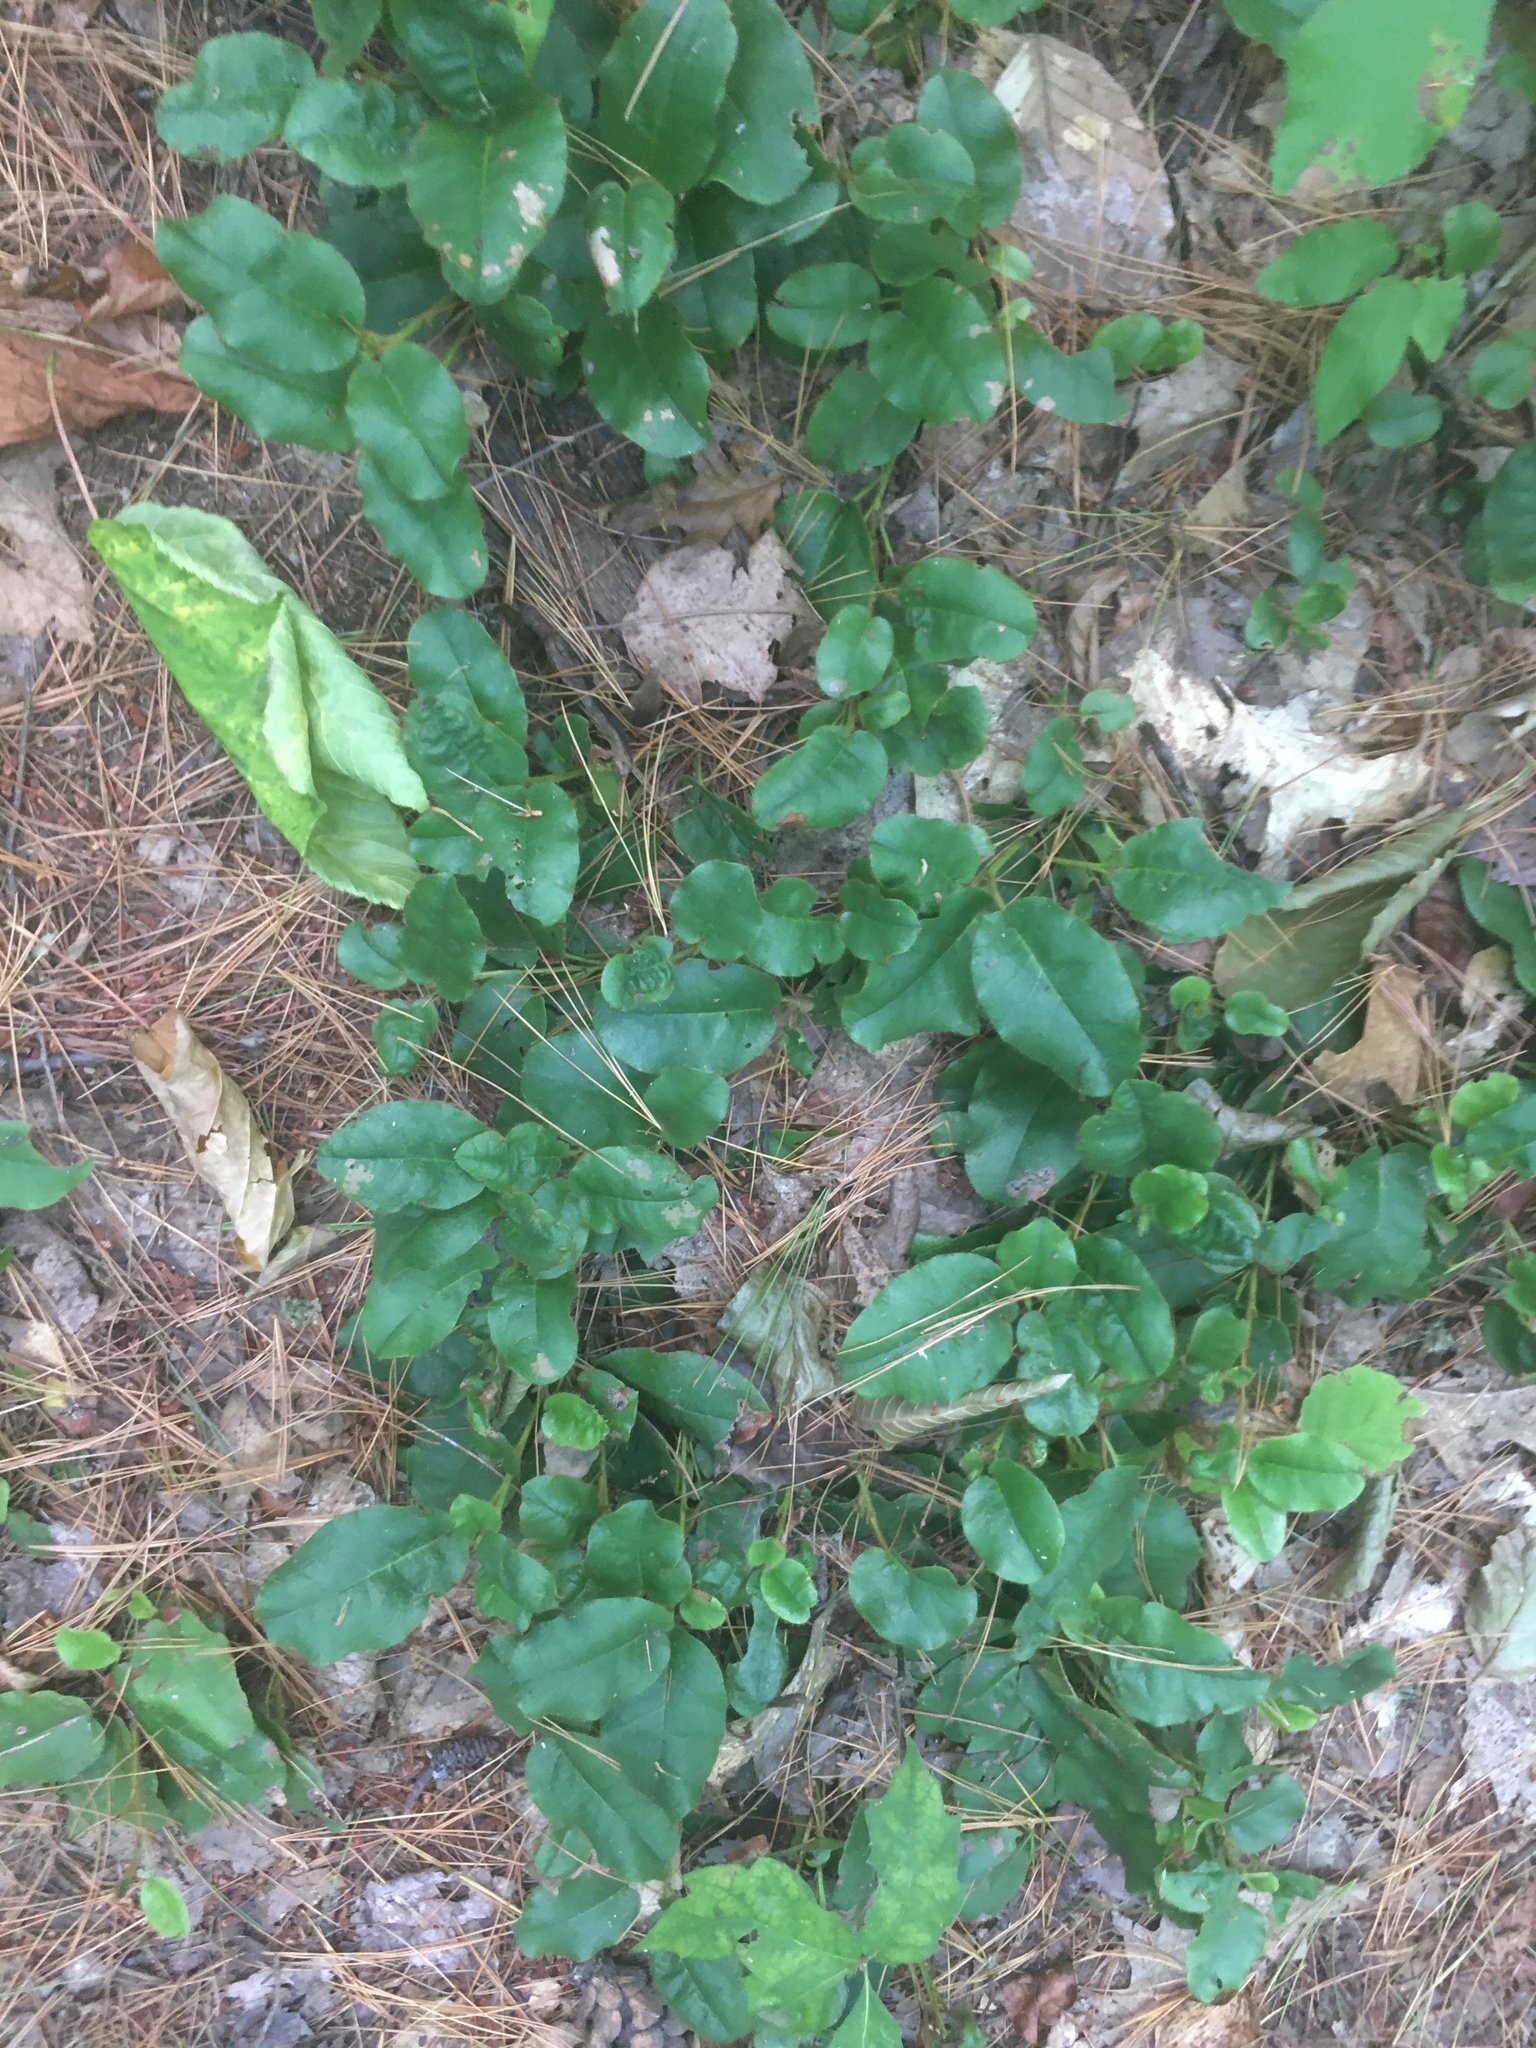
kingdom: Plantae
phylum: Tracheophyta
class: Magnoliopsida
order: Ericales
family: Ericaceae
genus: Epigaea
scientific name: Epigaea repens
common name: Gravelroot
